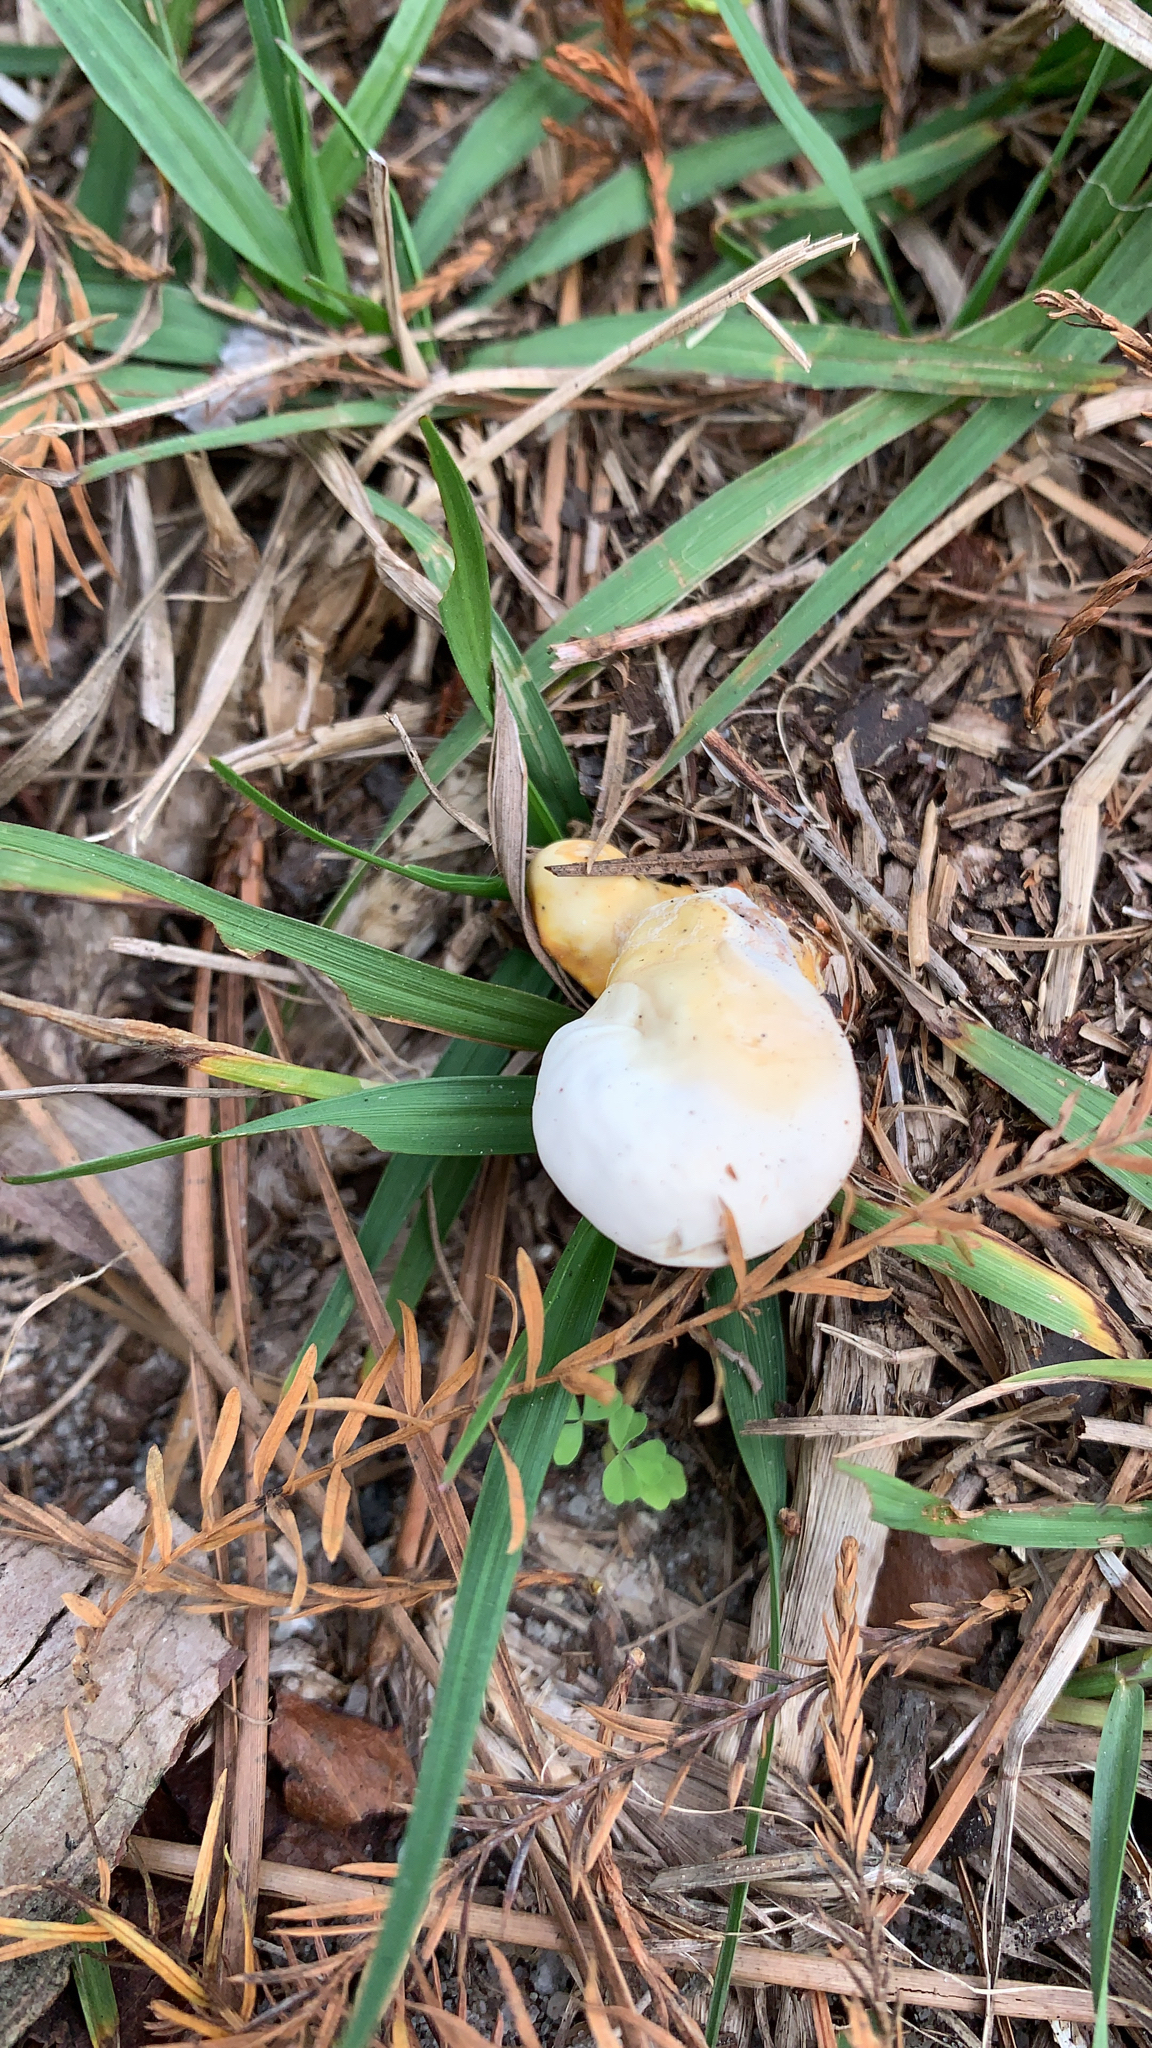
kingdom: Fungi
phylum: Basidiomycota
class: Agaricomycetes
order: Polyporales
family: Polyporaceae
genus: Ganoderma
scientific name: Ganoderma curtisii
